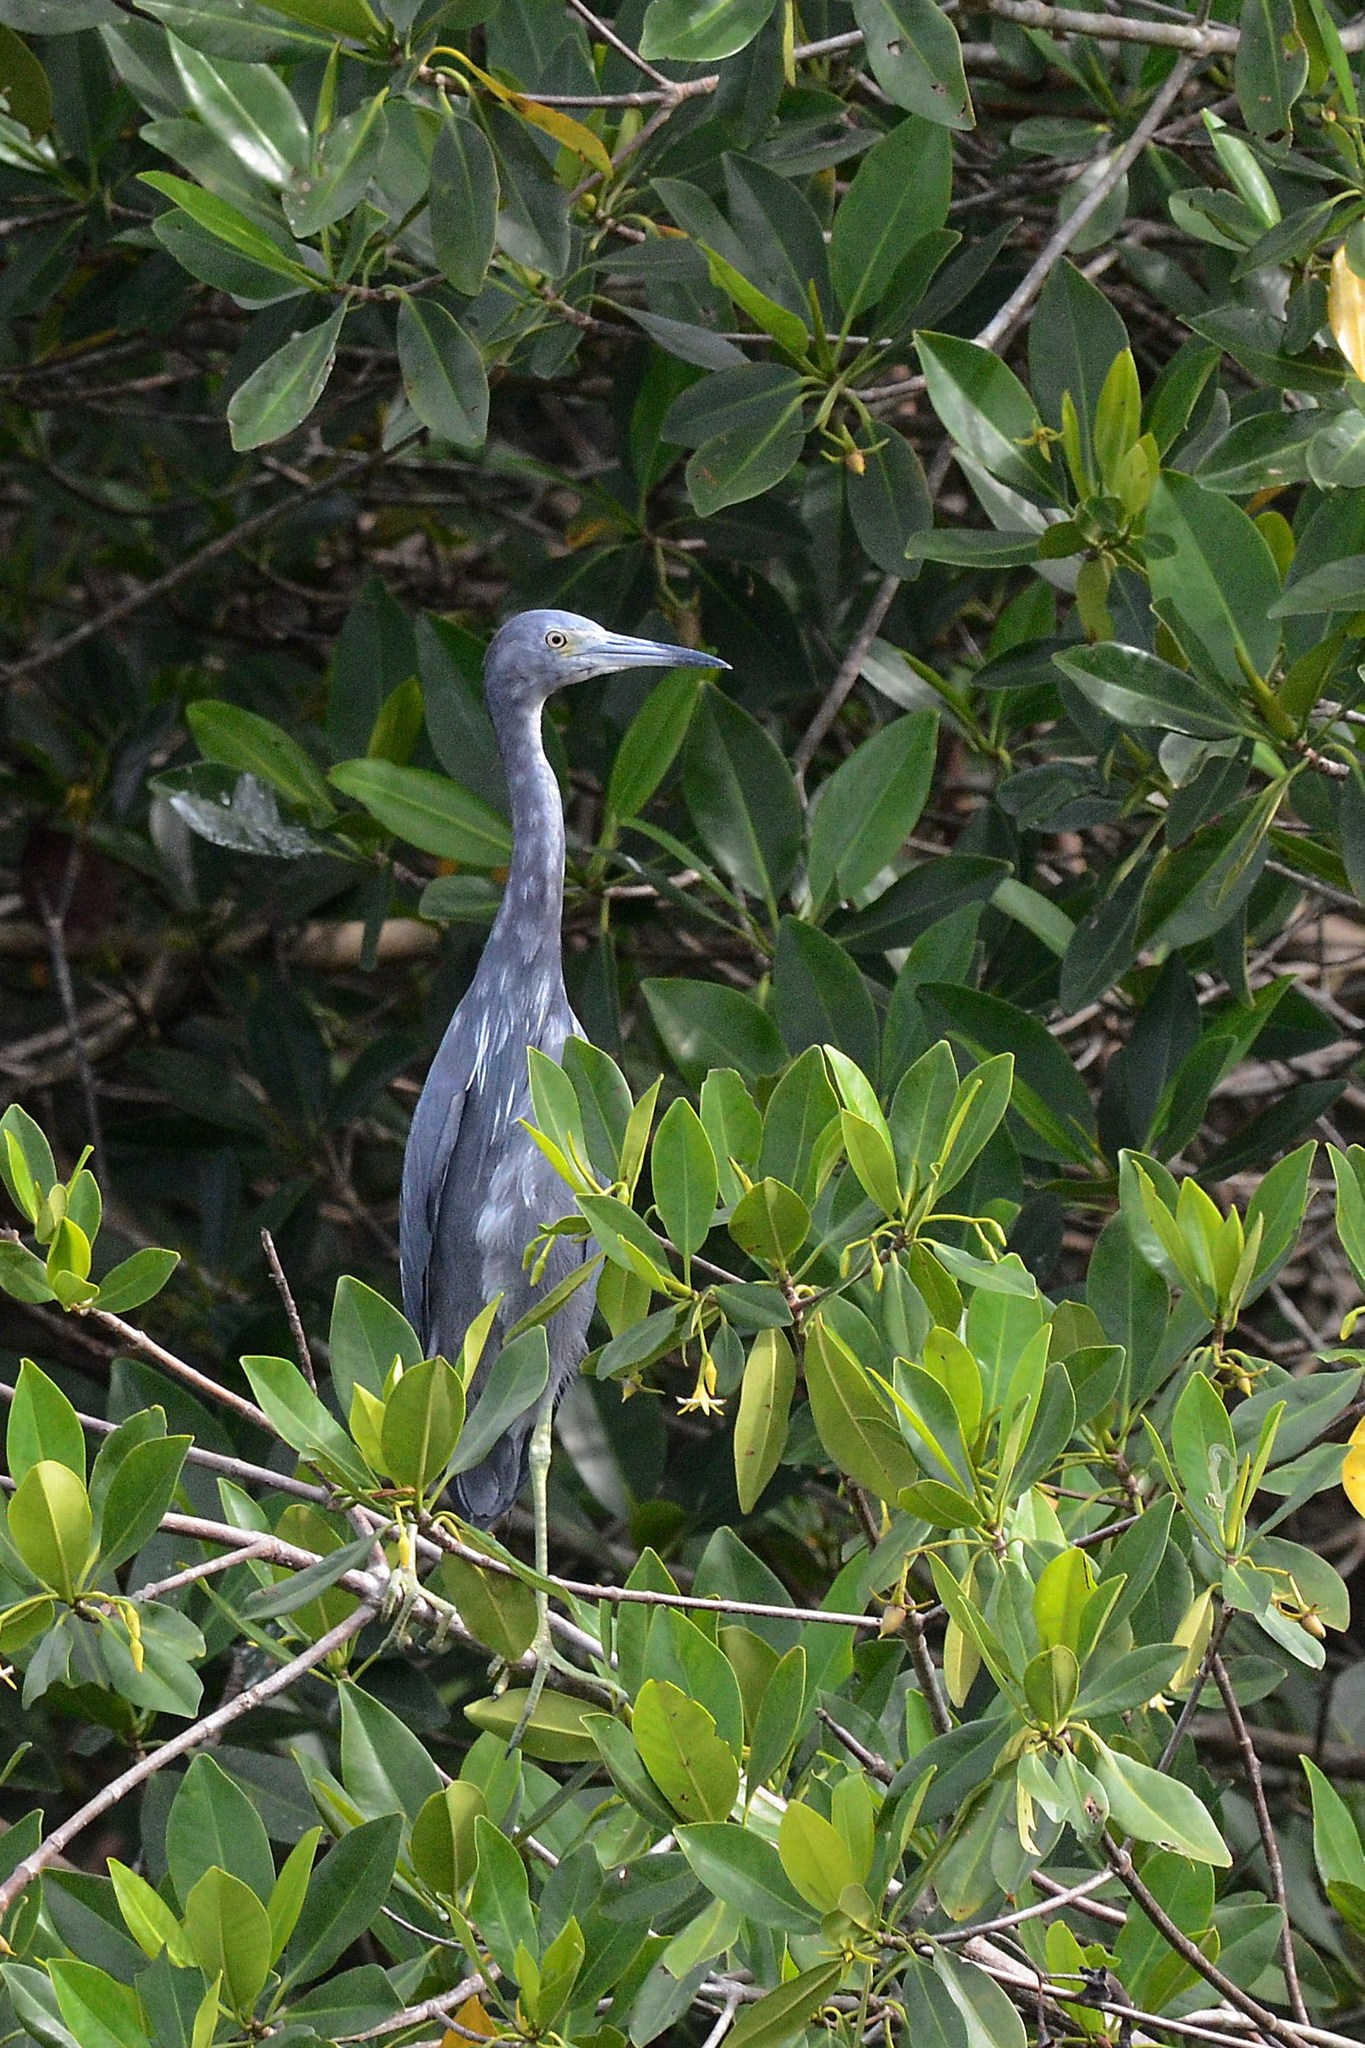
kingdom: Animalia
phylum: Chordata
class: Aves
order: Pelecaniformes
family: Ardeidae
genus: Egretta
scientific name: Egretta caerulea
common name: Little blue heron
